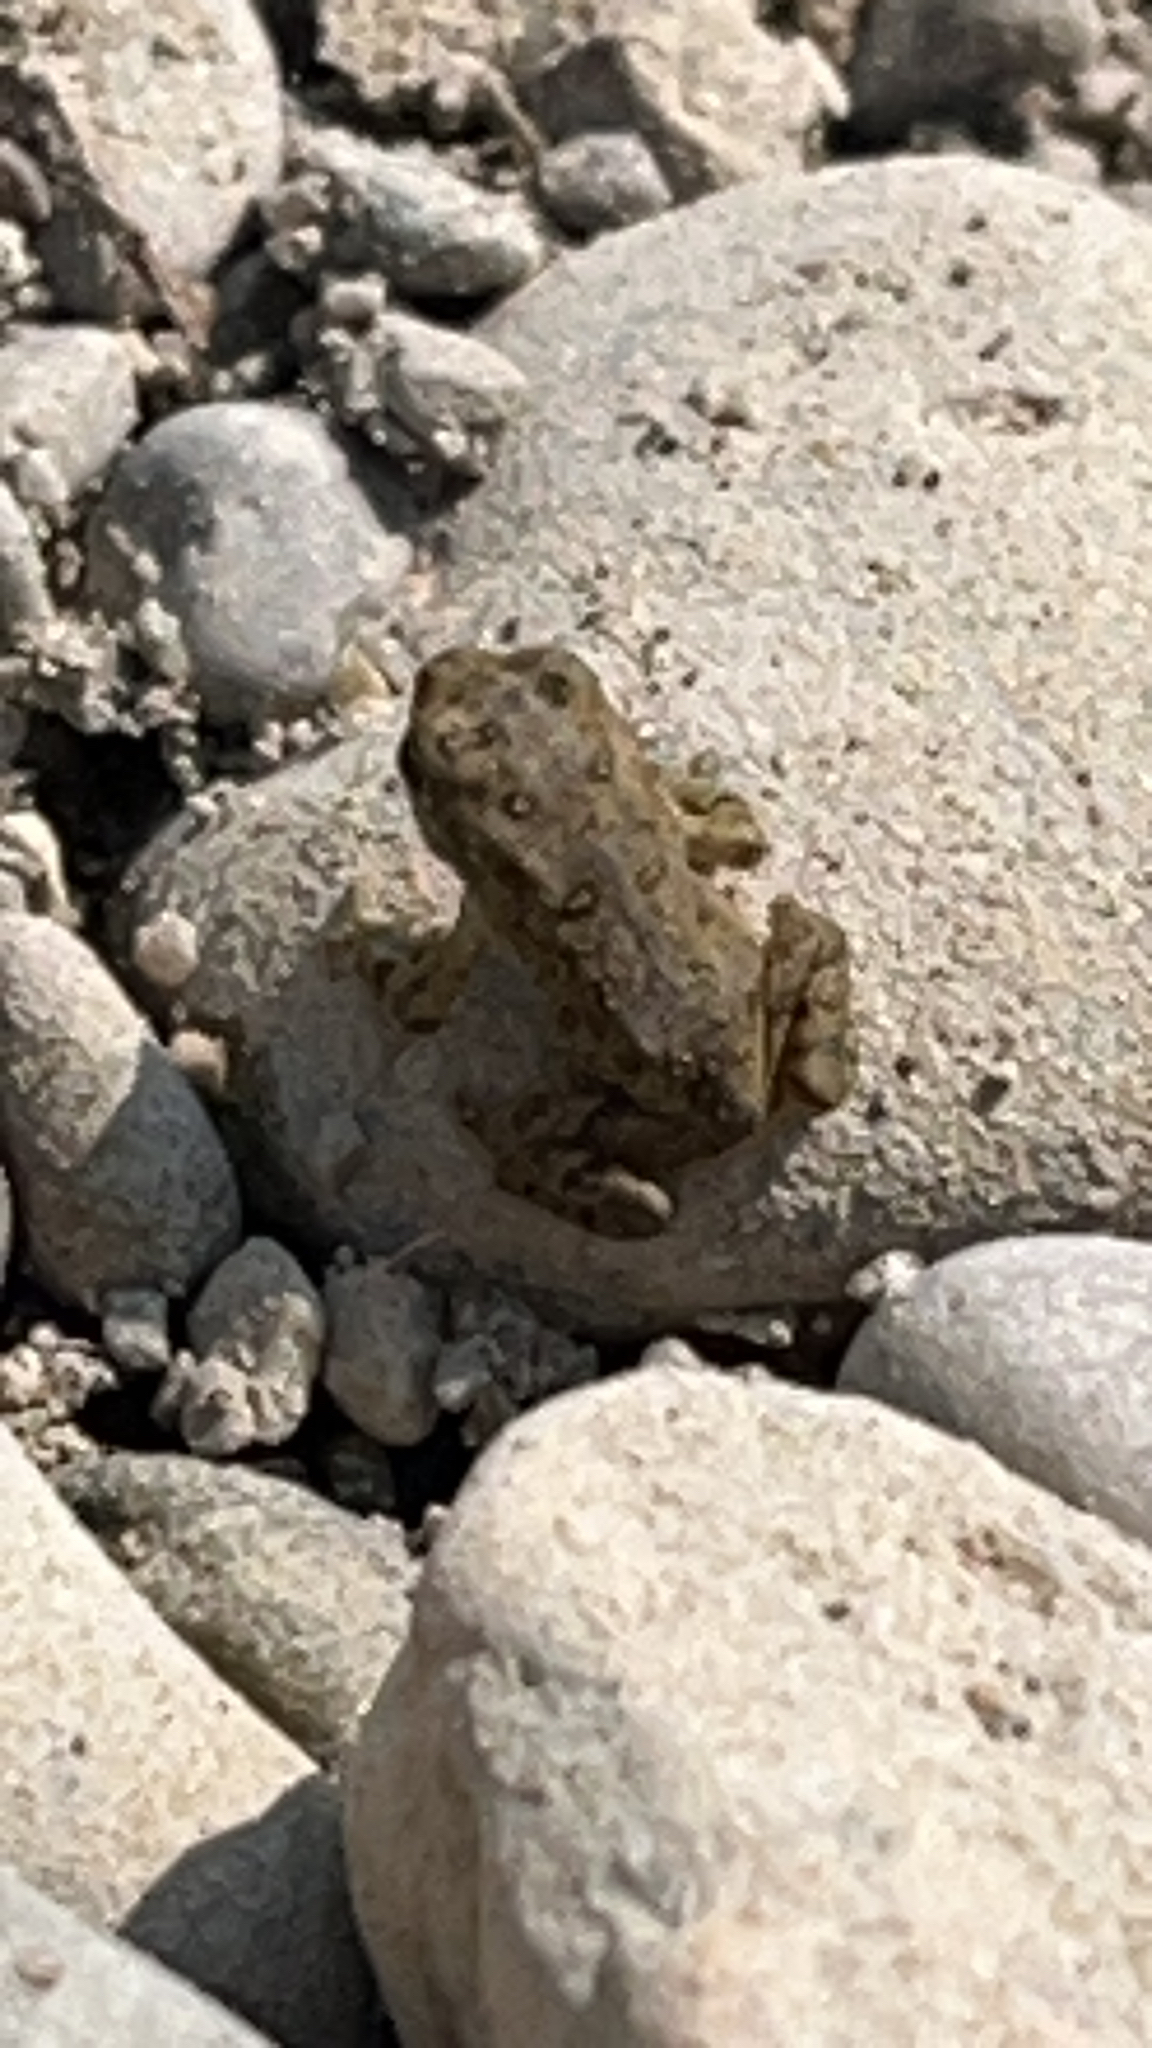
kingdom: Animalia
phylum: Chordata
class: Amphibia
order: Anura
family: Bufonidae
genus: Anaxyrus
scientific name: Anaxyrus americanus
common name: American toad
